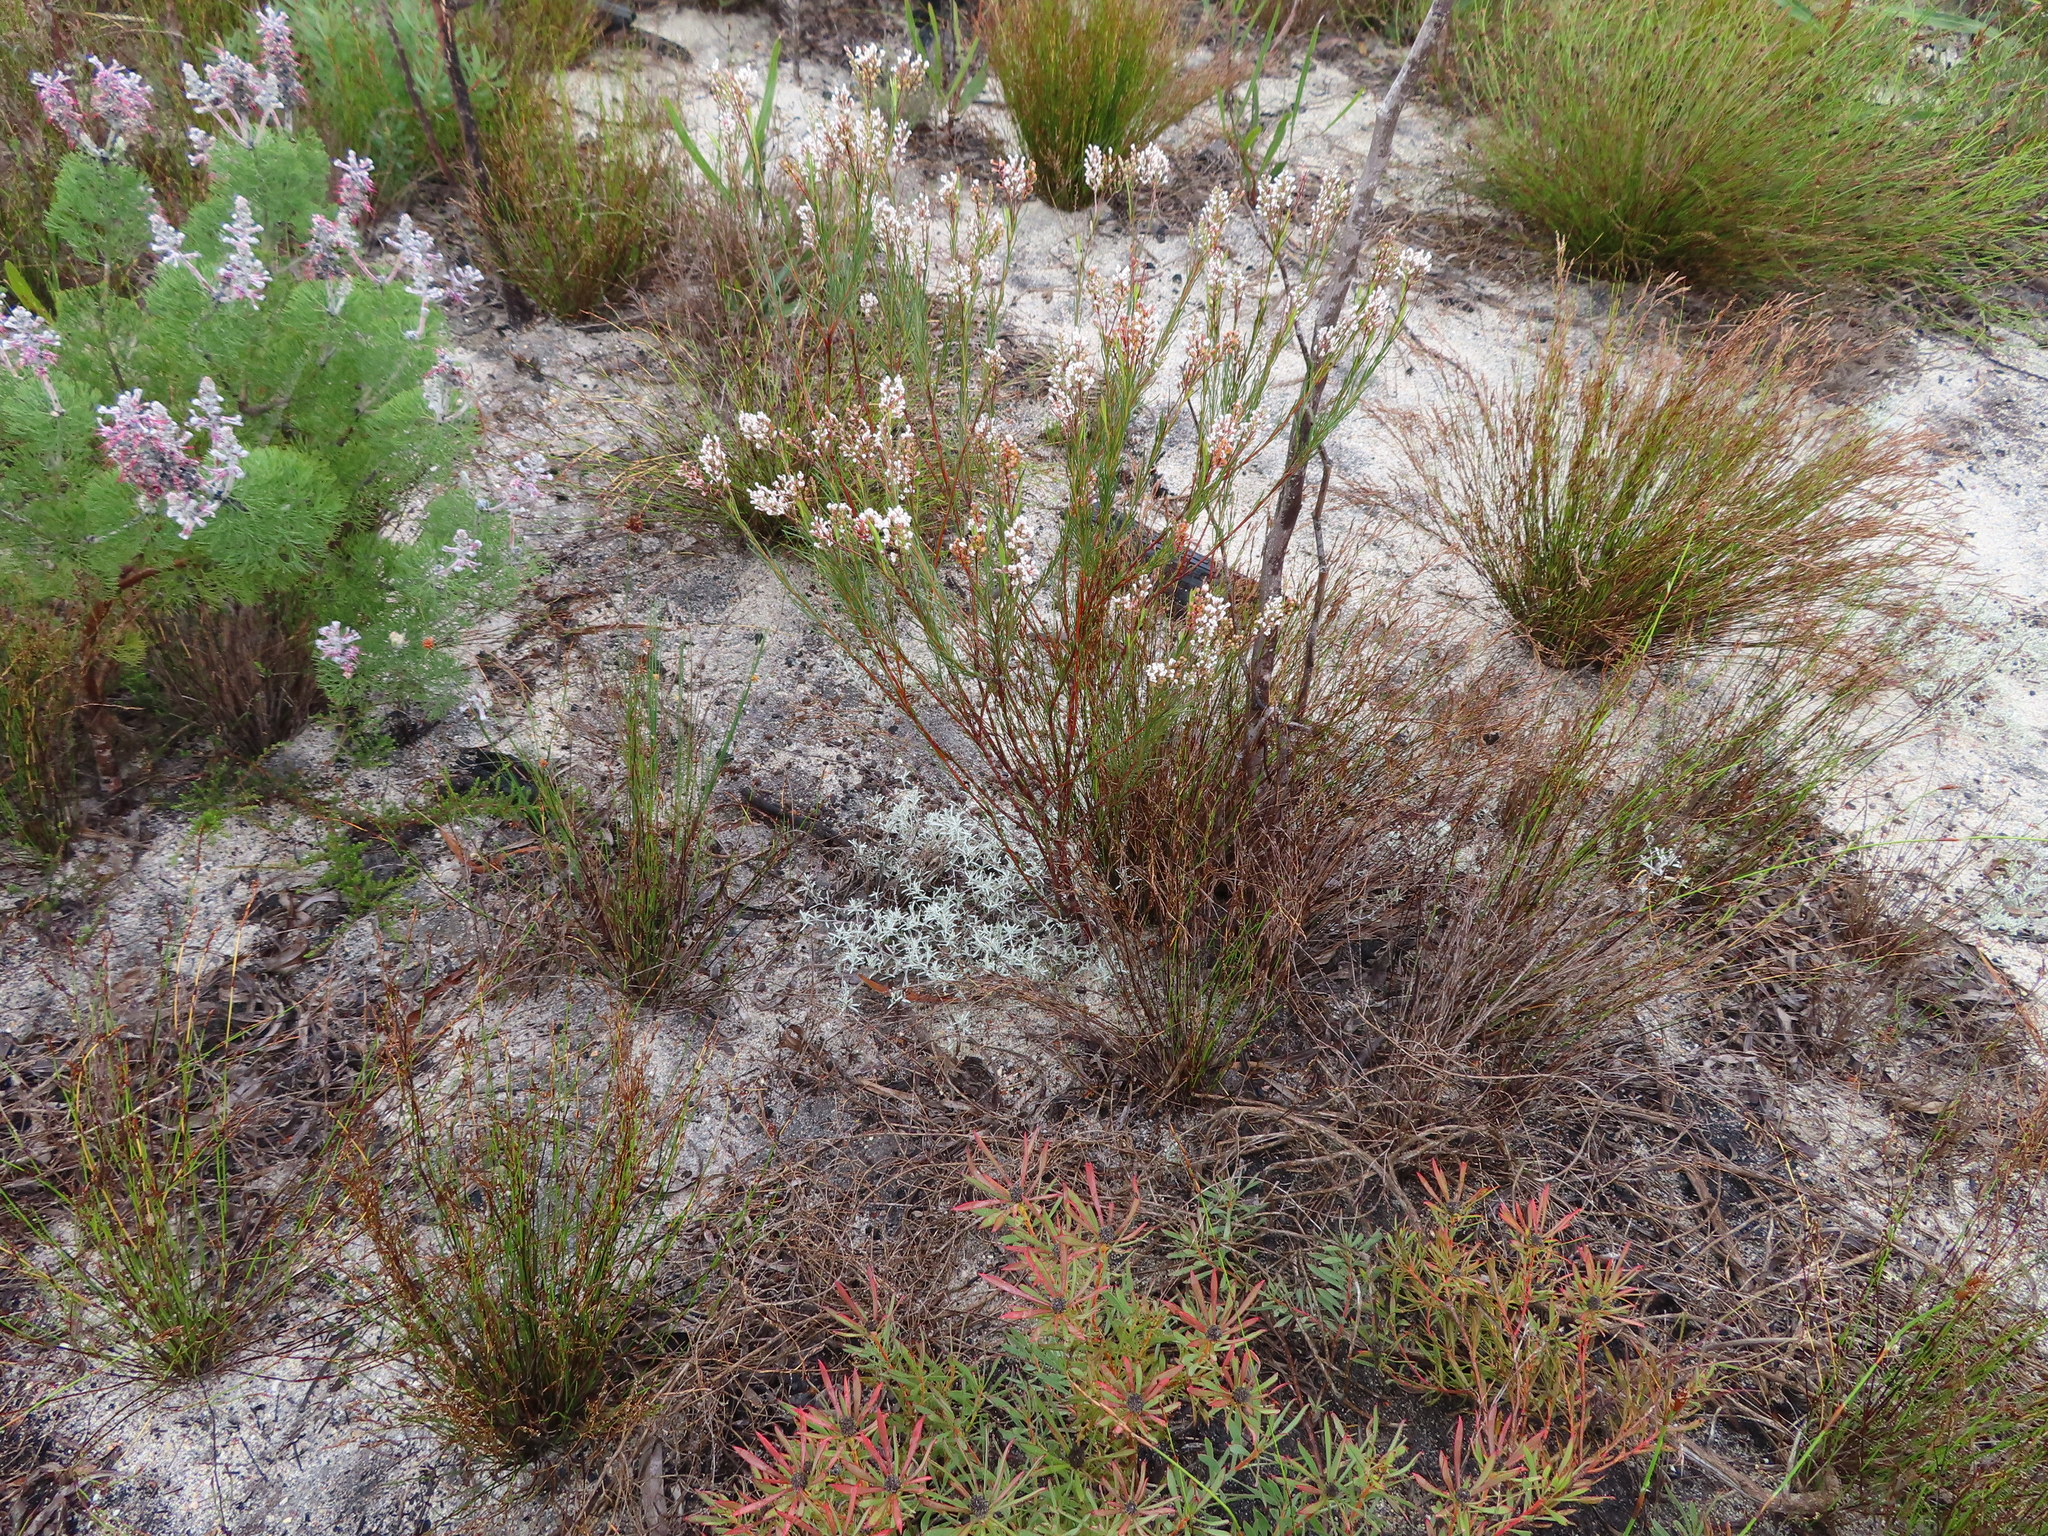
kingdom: Plantae
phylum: Tracheophyta
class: Magnoliopsida
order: Proteales
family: Proteaceae
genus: Spatalla
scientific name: Spatalla racemosa
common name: Lax-stalked spoon
